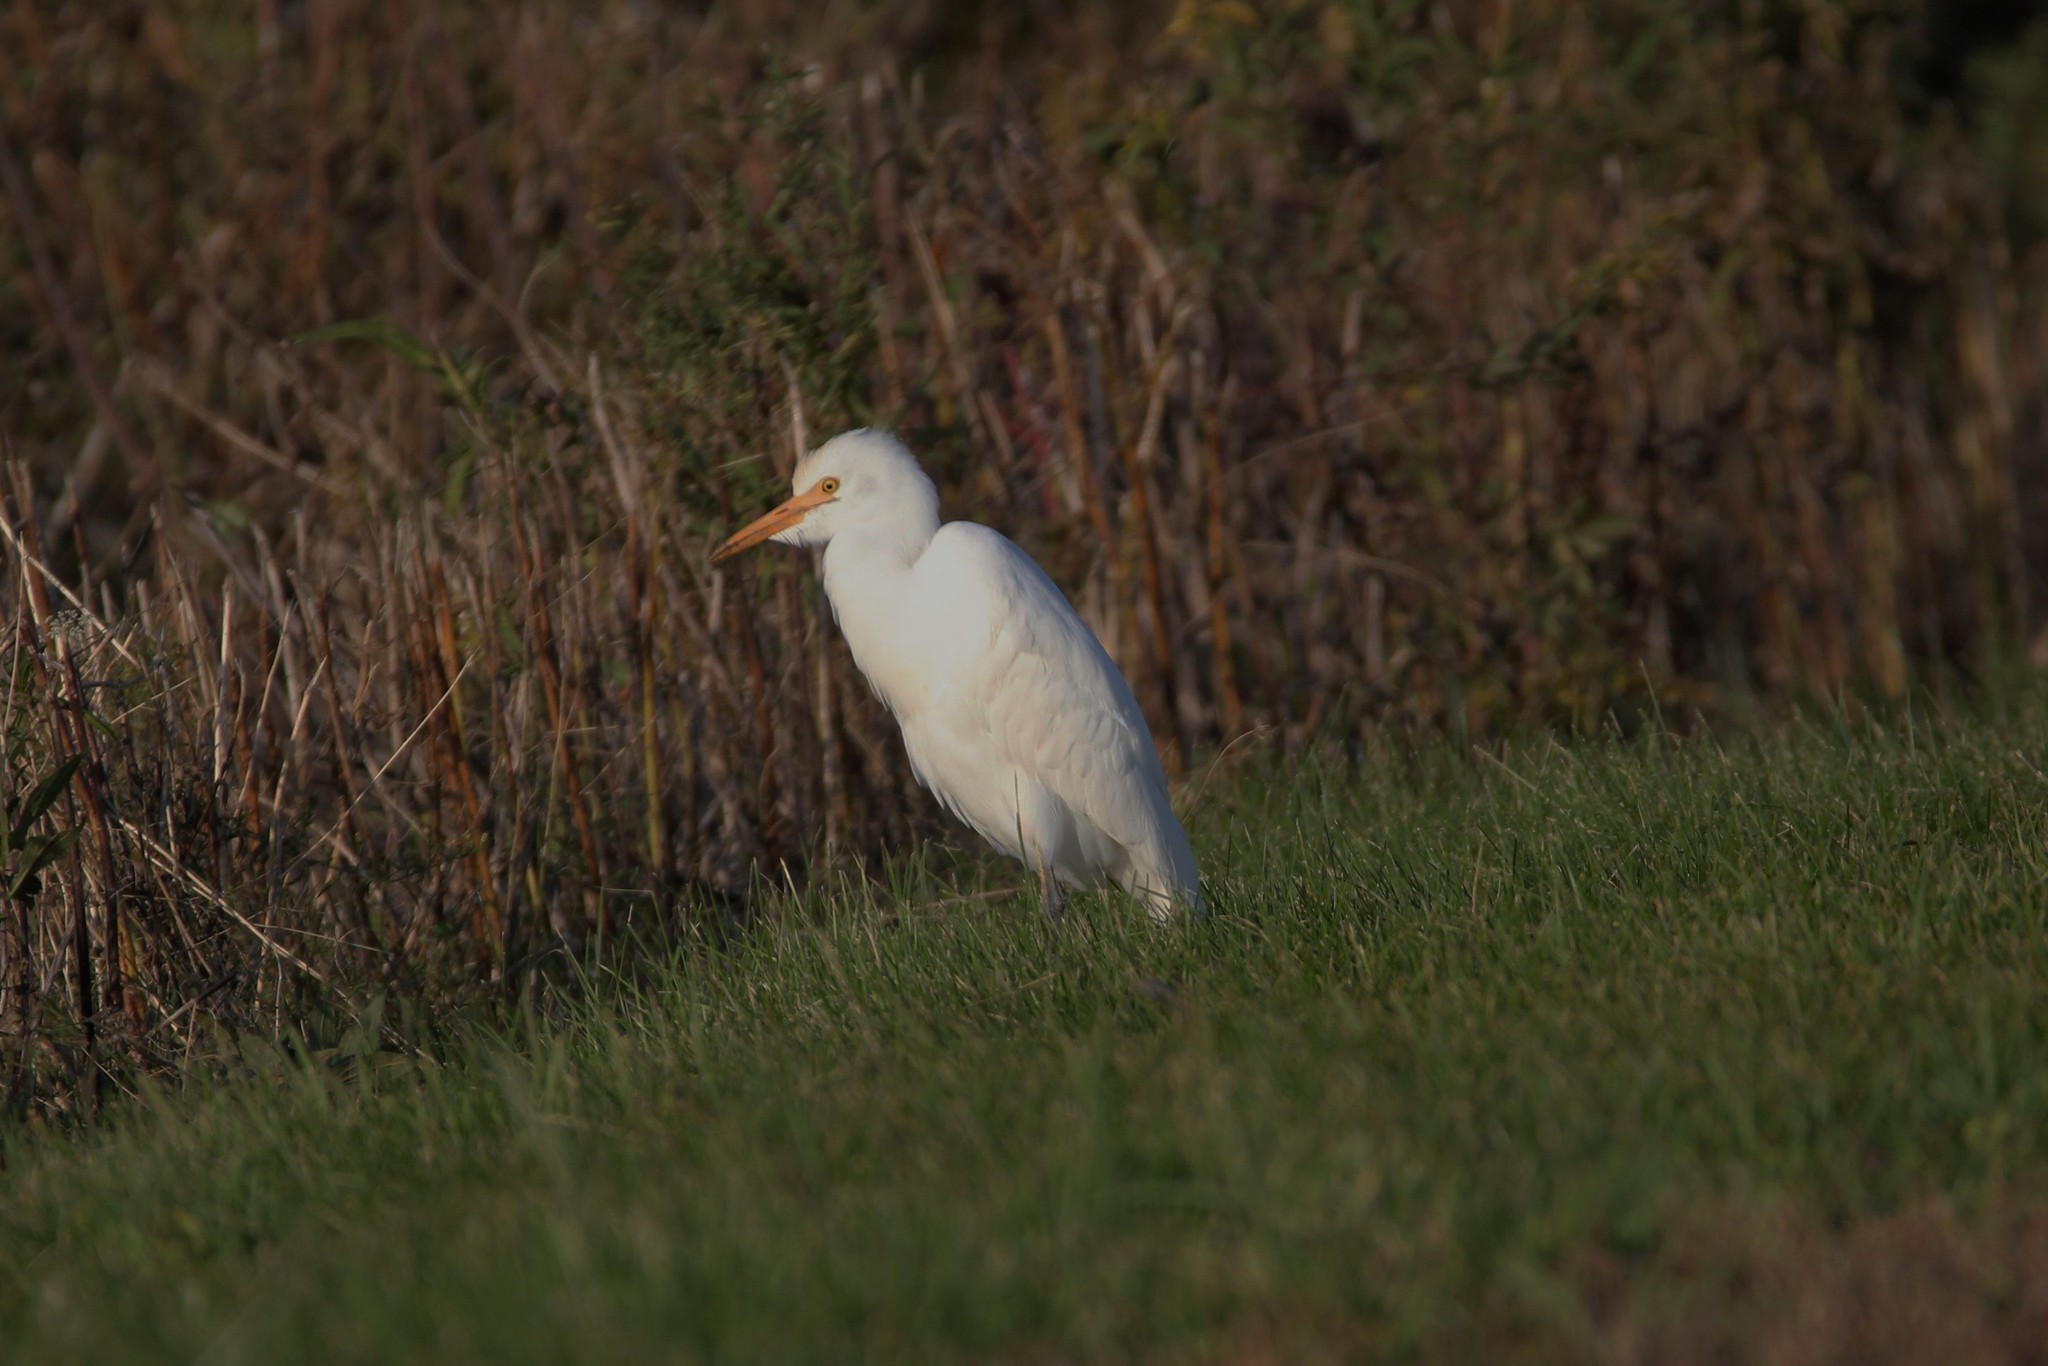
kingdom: Animalia
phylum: Chordata
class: Aves
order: Pelecaniformes
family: Ardeidae
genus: Bubulcus
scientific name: Bubulcus ibis
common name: Cattle egret
